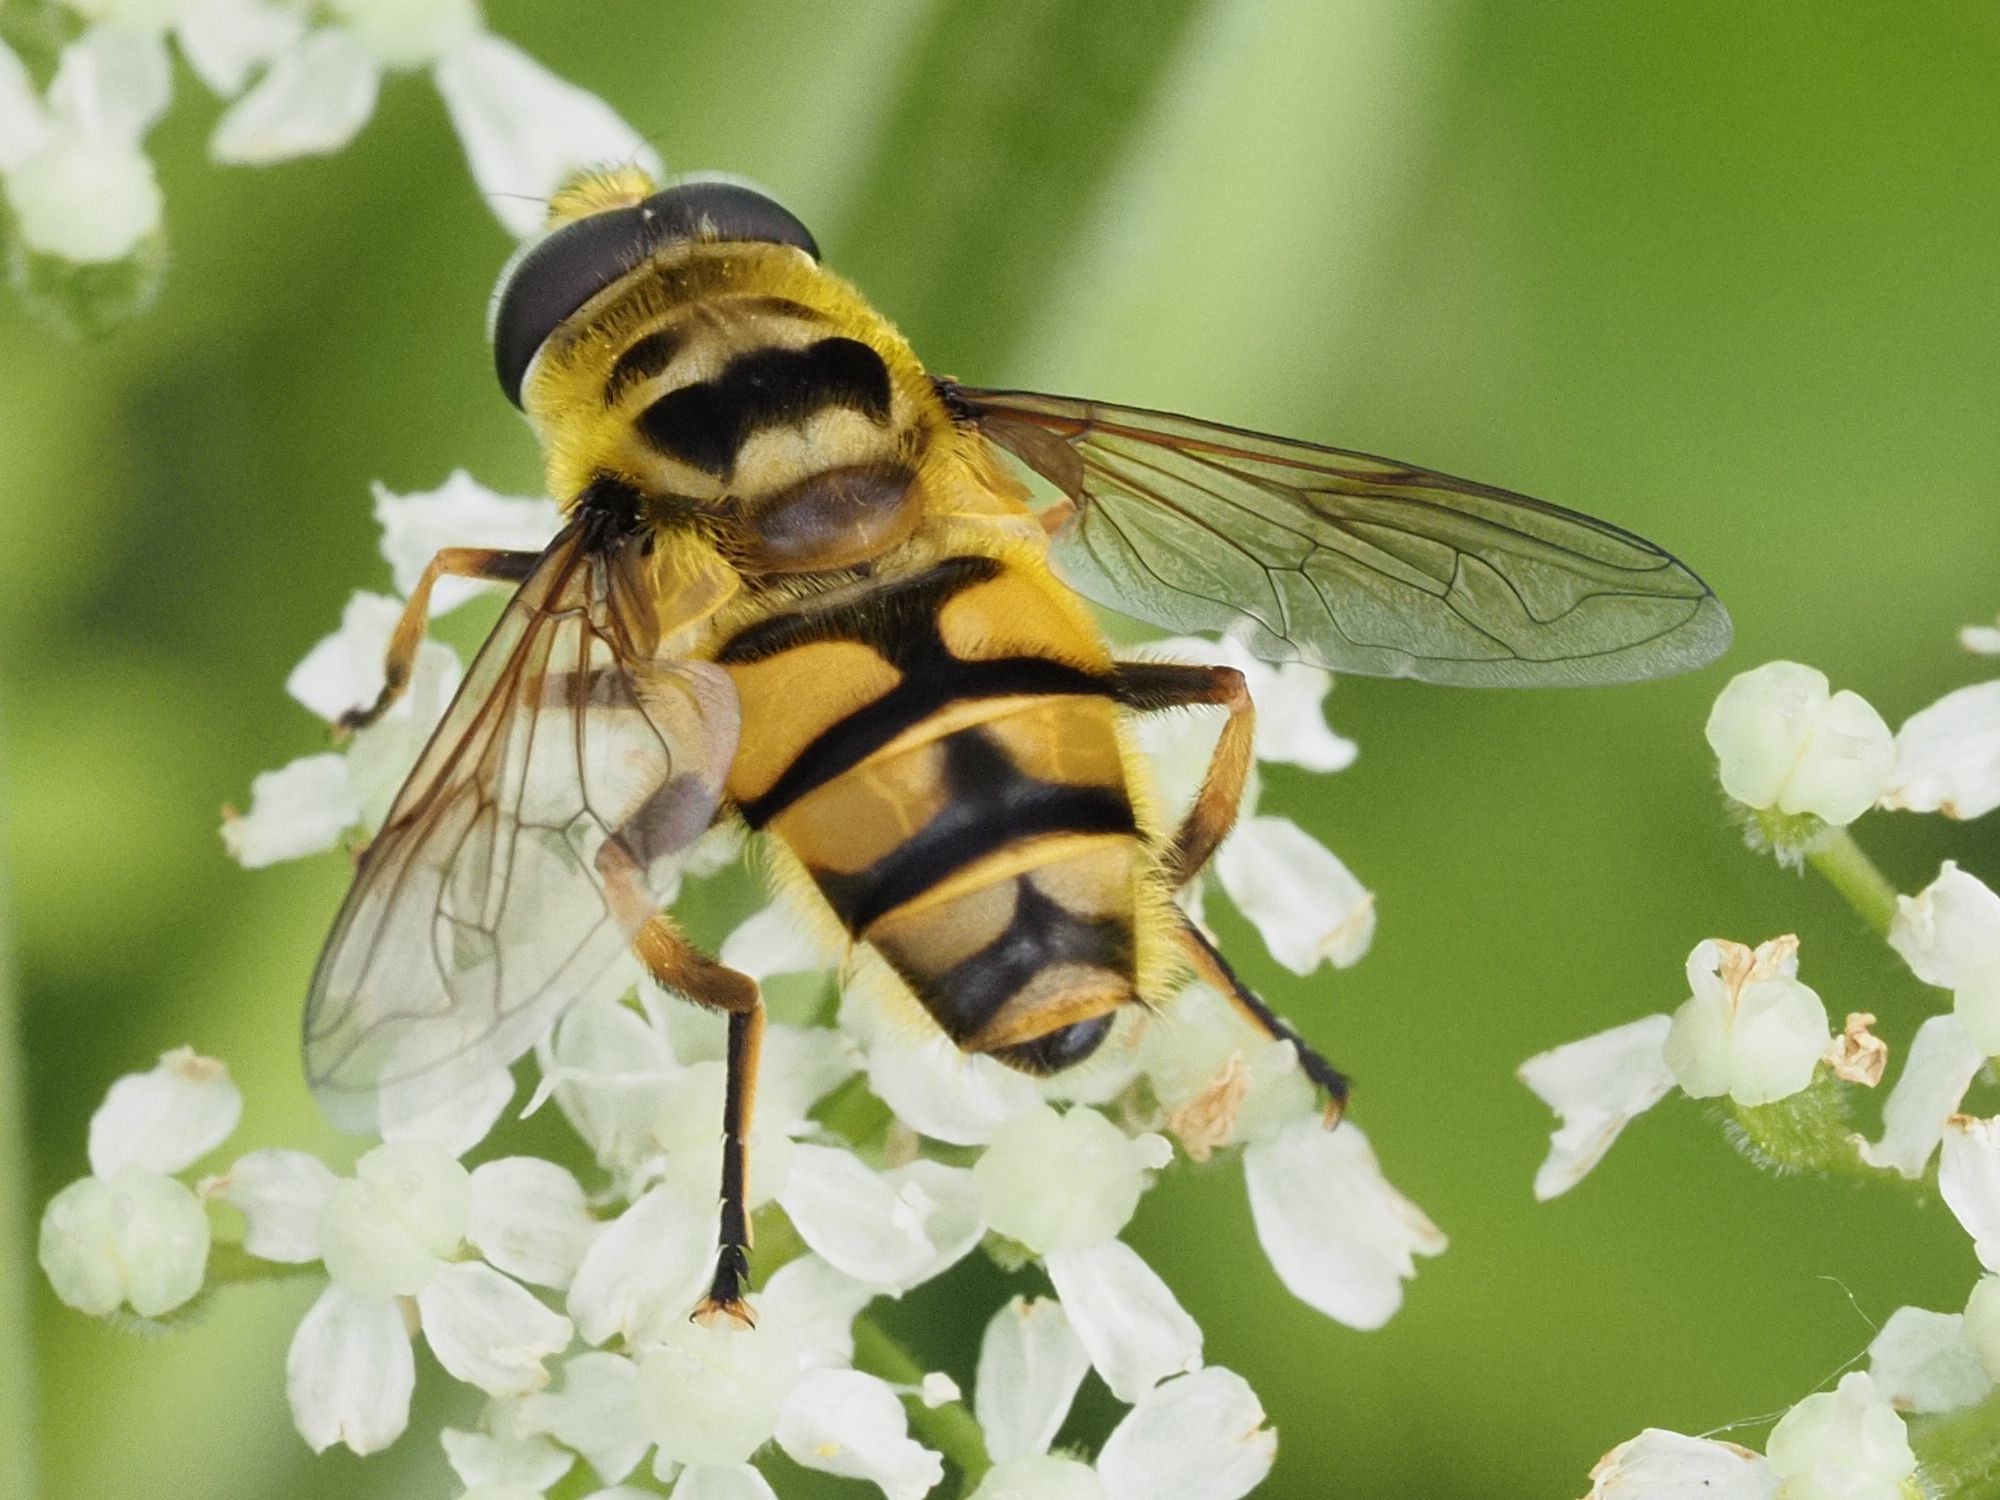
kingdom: Animalia
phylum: Arthropoda
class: Insecta
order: Diptera
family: Syrphidae
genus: Myathropa
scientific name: Myathropa florea
